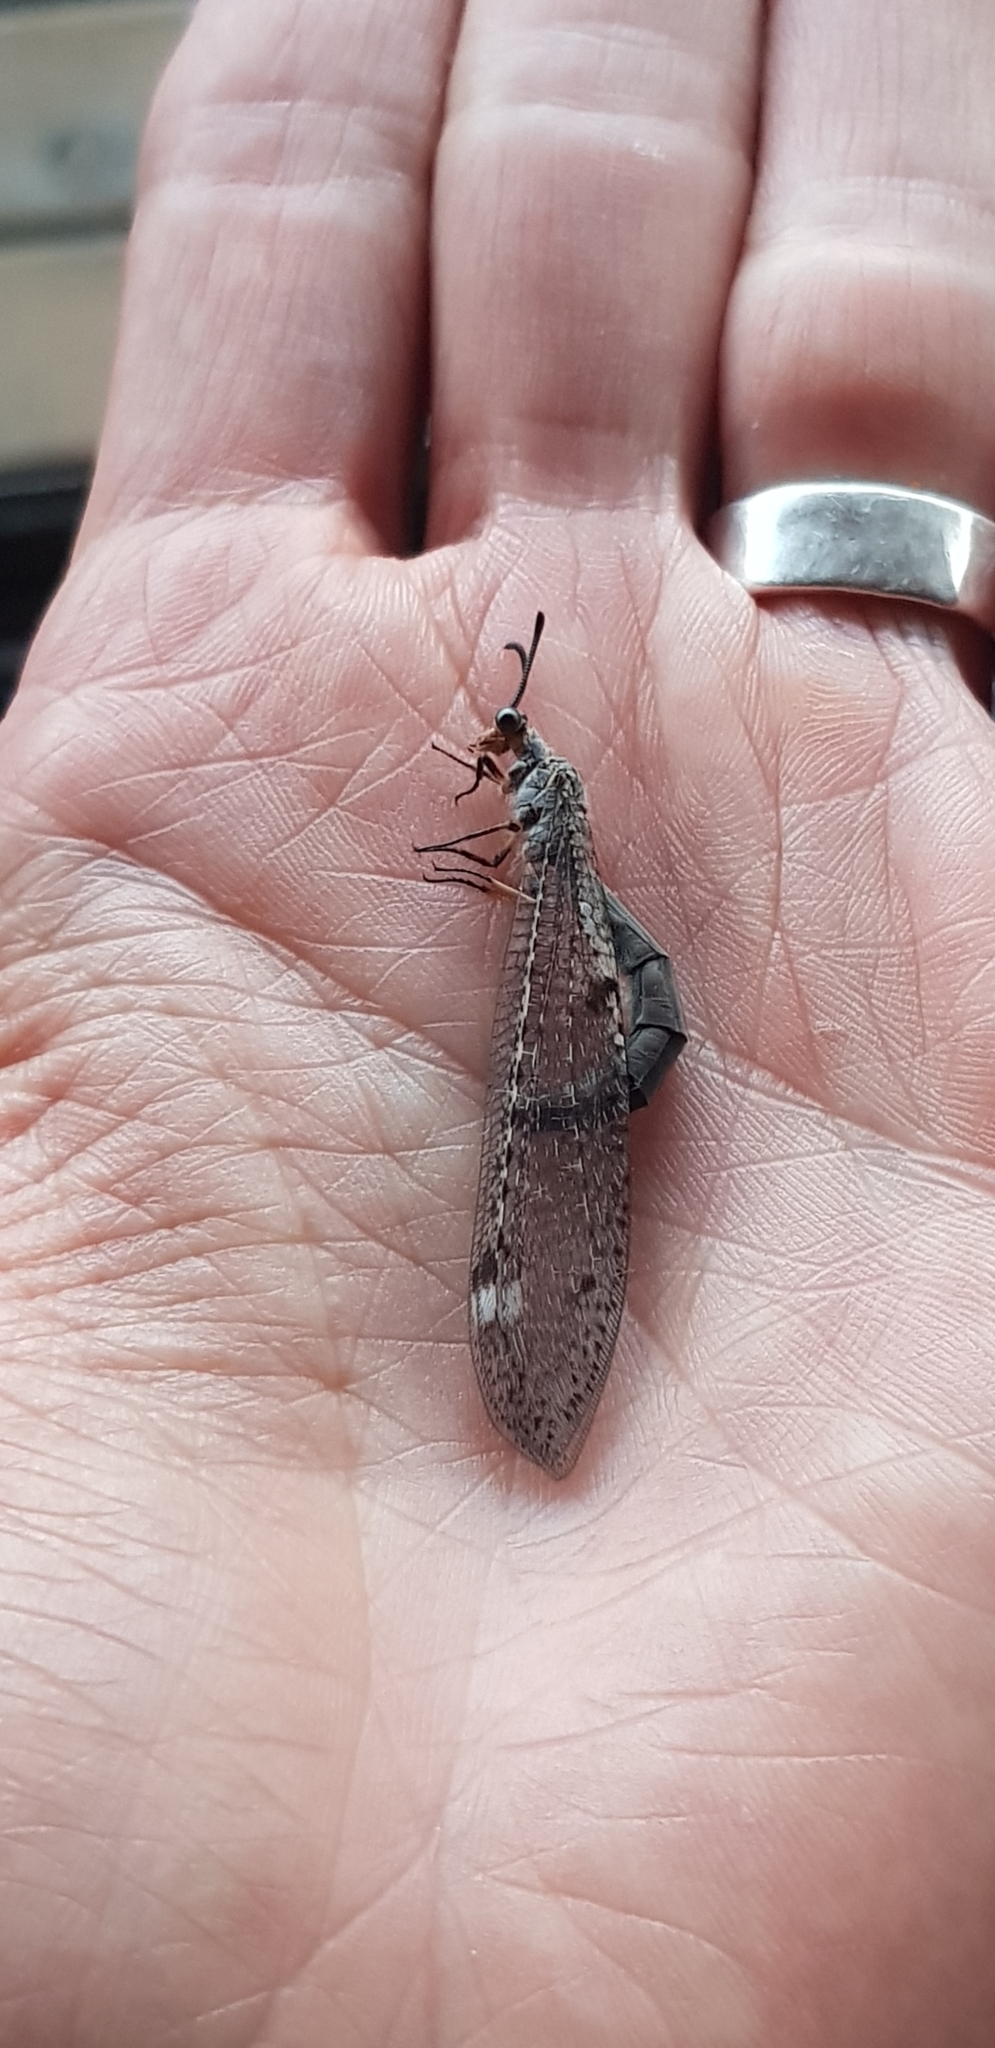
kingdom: Animalia
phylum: Arthropoda
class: Insecta
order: Neuroptera
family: Myrmeleontidae
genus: Weeleus
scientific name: Weeleus acutus
